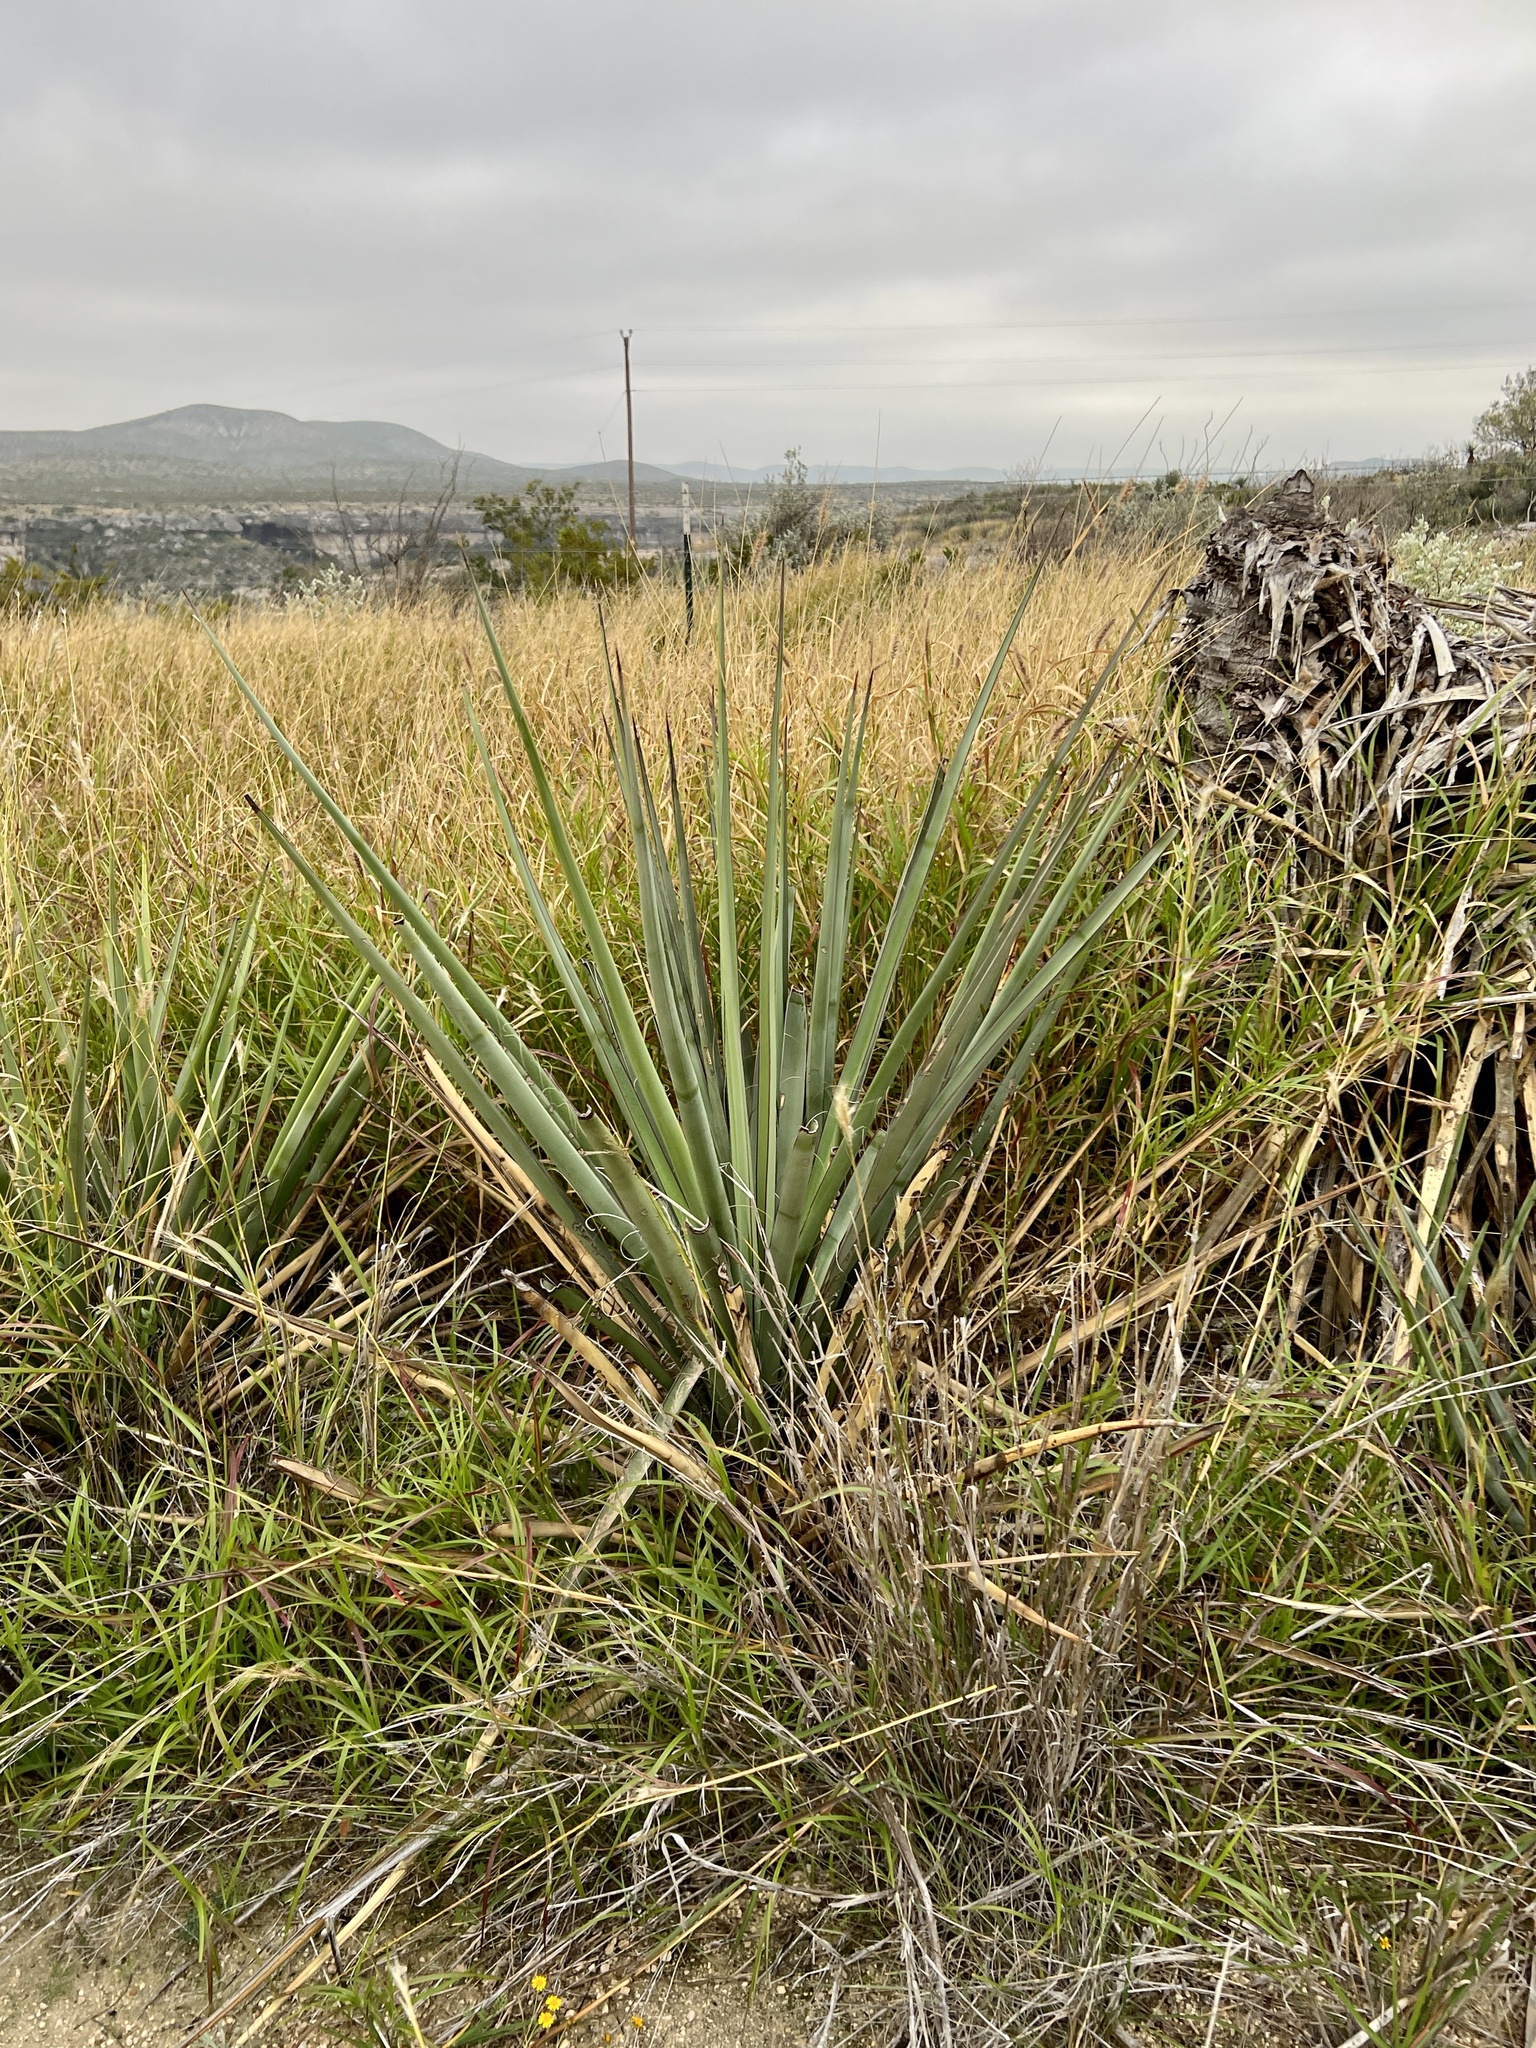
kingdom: Plantae
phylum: Tracheophyta
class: Liliopsida
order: Asparagales
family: Asparagaceae
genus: Yucca
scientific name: Yucca treculiana
